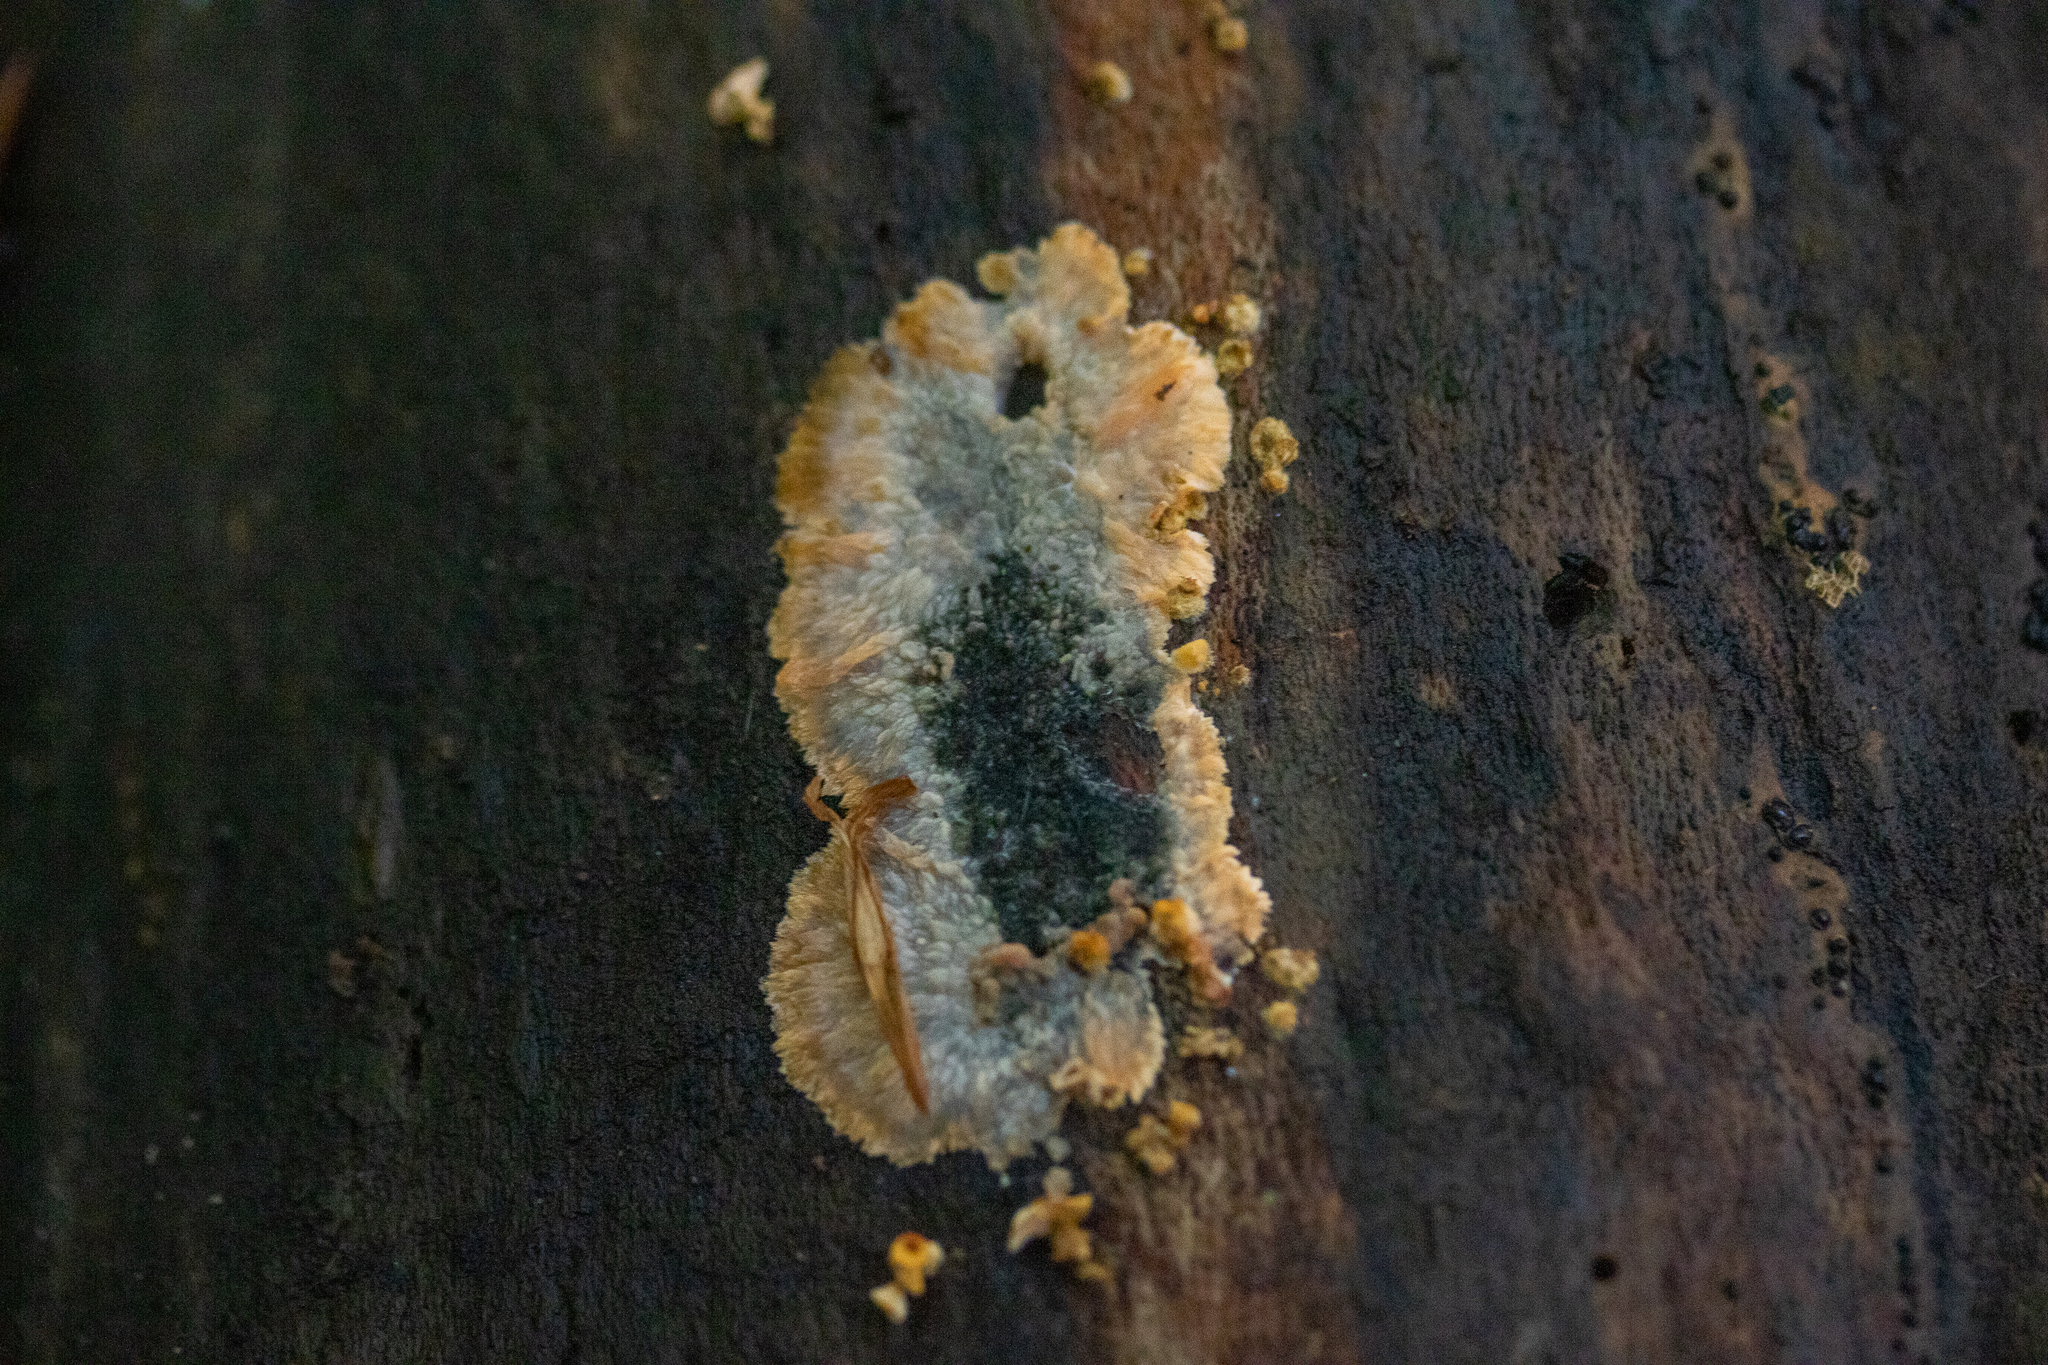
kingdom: Fungi
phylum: Basidiomycota
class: Agaricomycetes
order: Polyporales
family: Meruliaceae
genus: Phlebia
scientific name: Phlebia radiata
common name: Wrinkled crust
